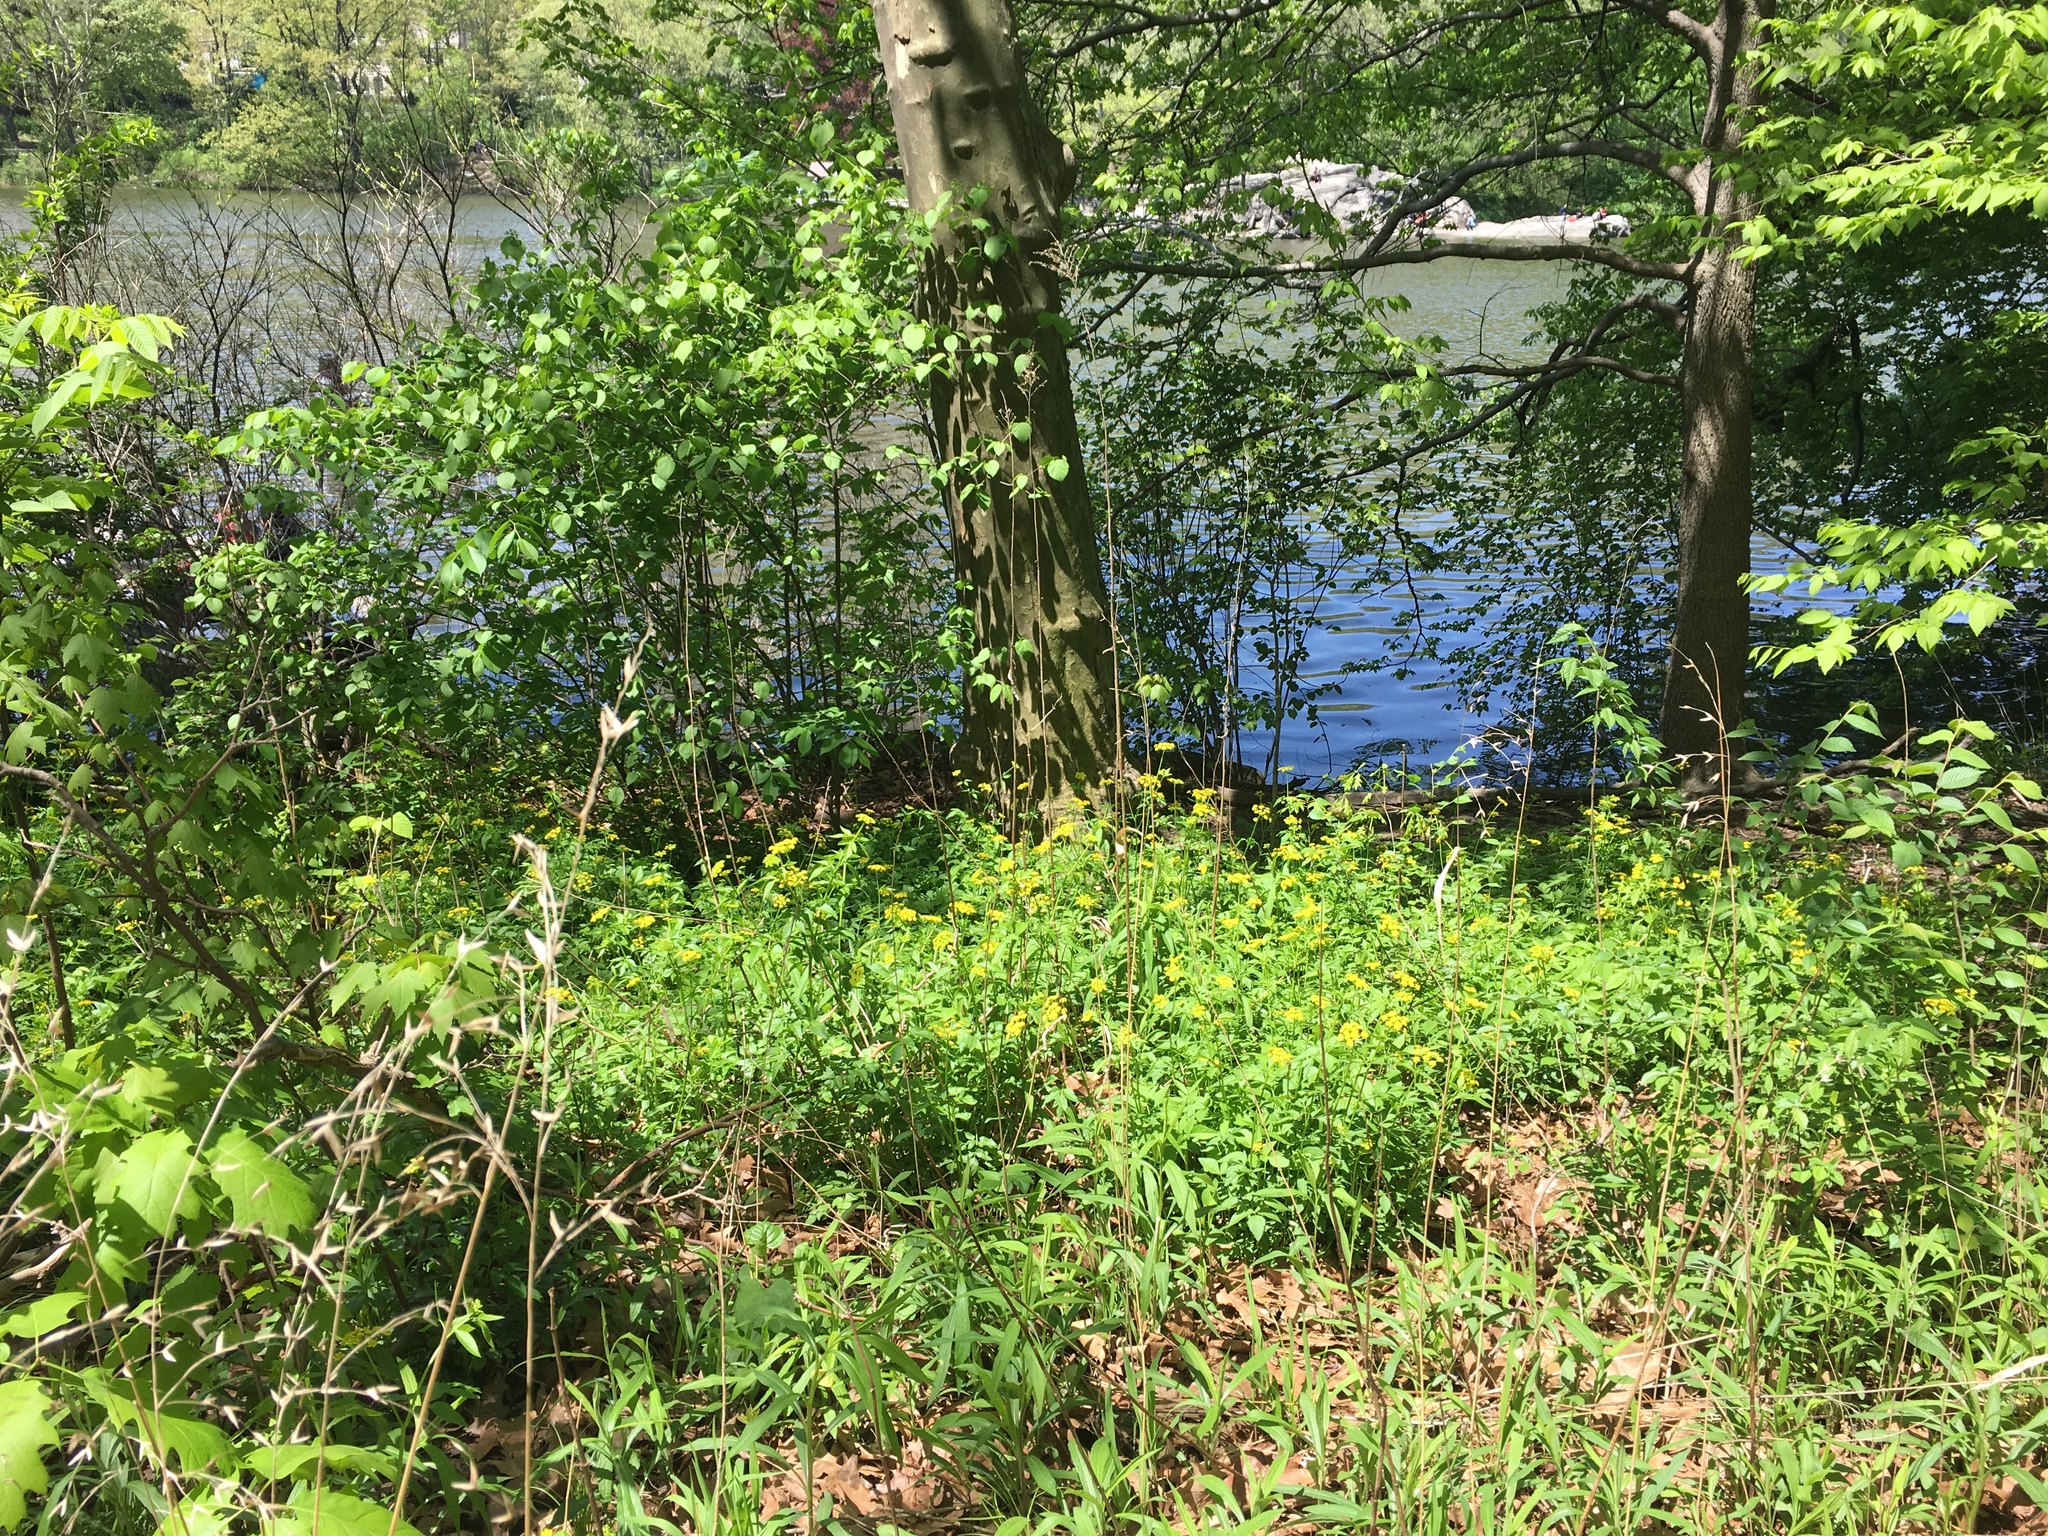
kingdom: Plantae
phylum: Tracheophyta
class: Magnoliopsida
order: Apiales
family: Apiaceae
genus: Zizia
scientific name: Zizia aurea
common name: Golden alexanders
